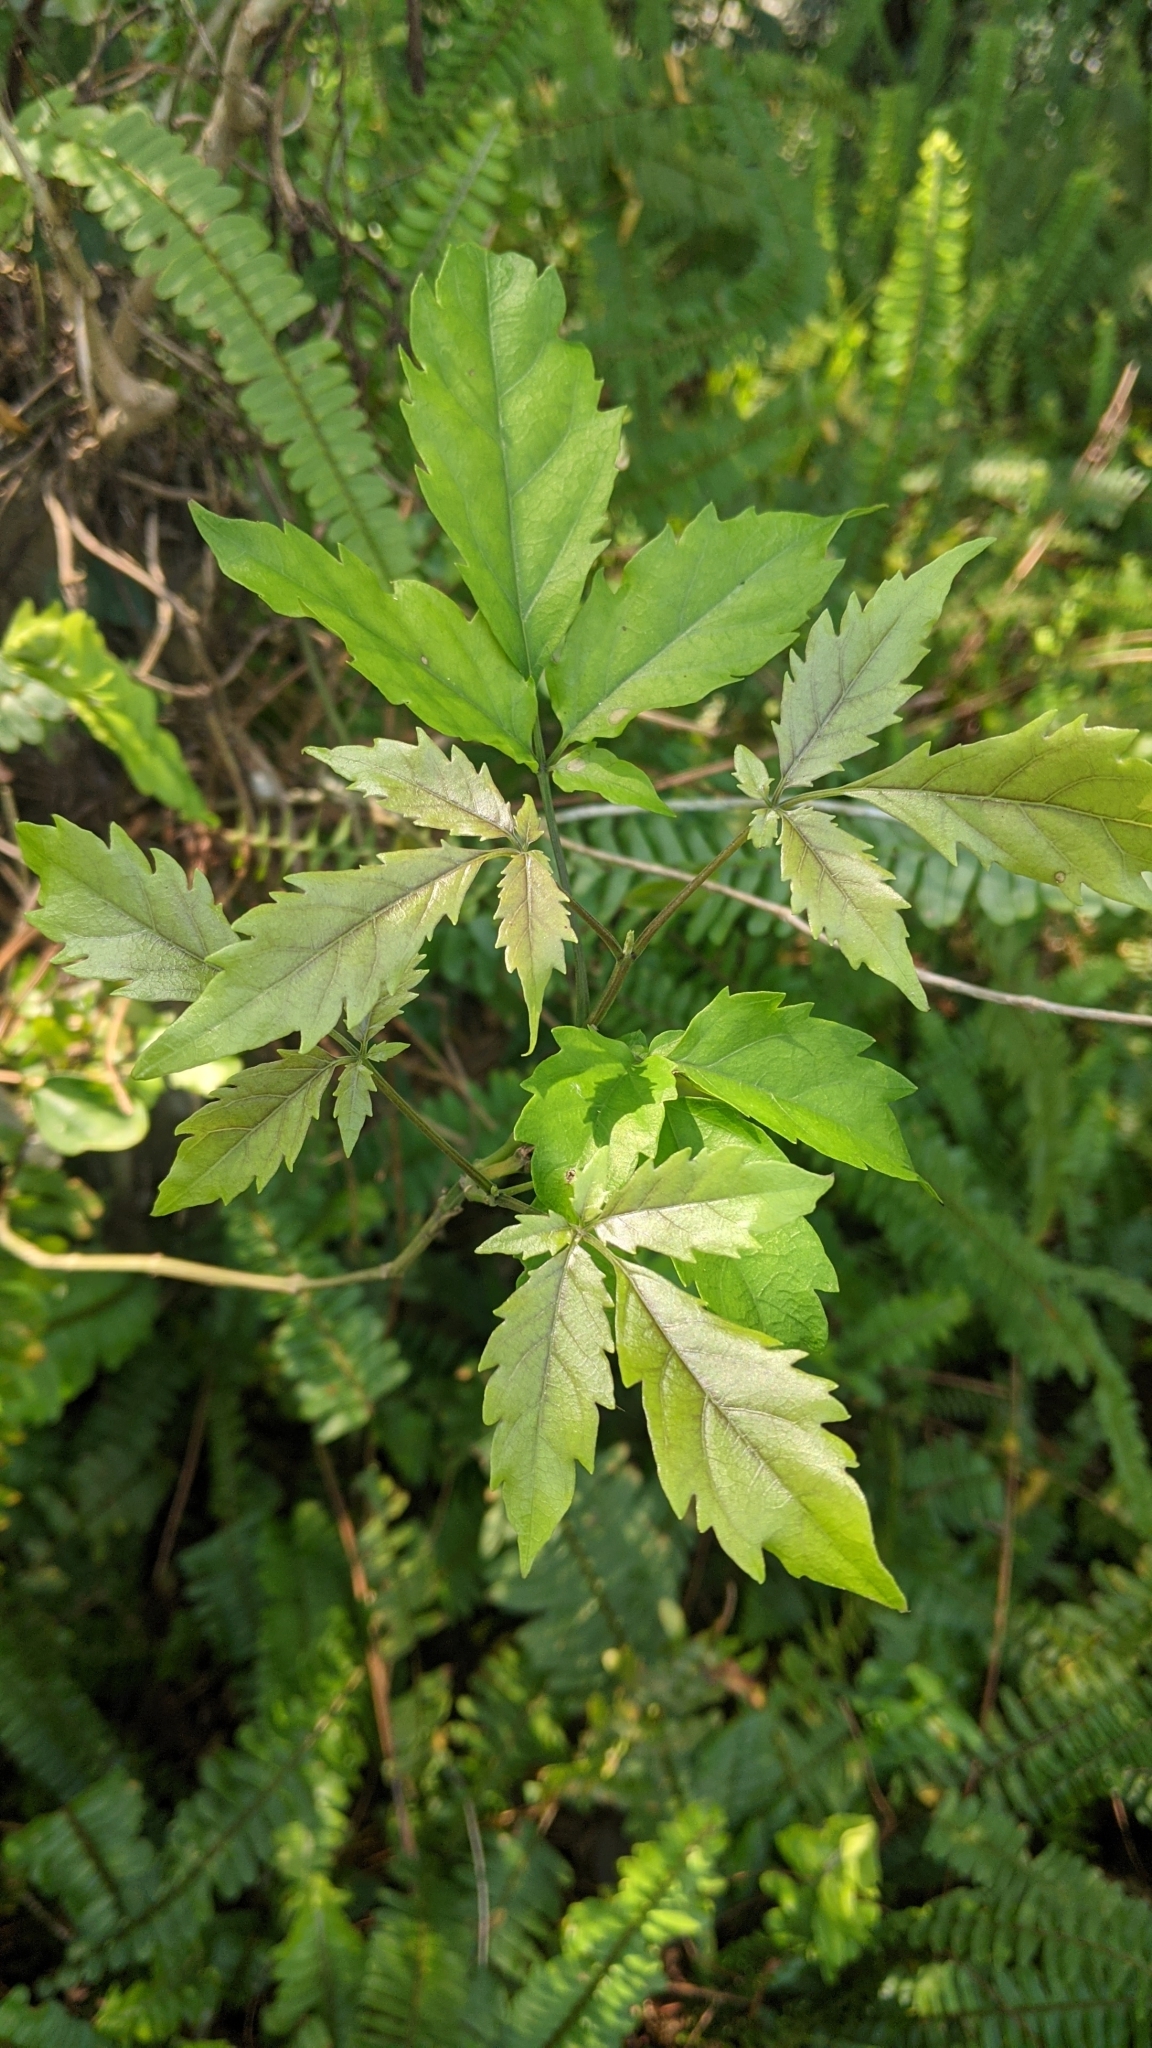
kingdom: Plantae
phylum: Tracheophyta
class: Magnoliopsida
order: Lamiales
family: Lamiaceae
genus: Vitex
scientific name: Vitex quinata
